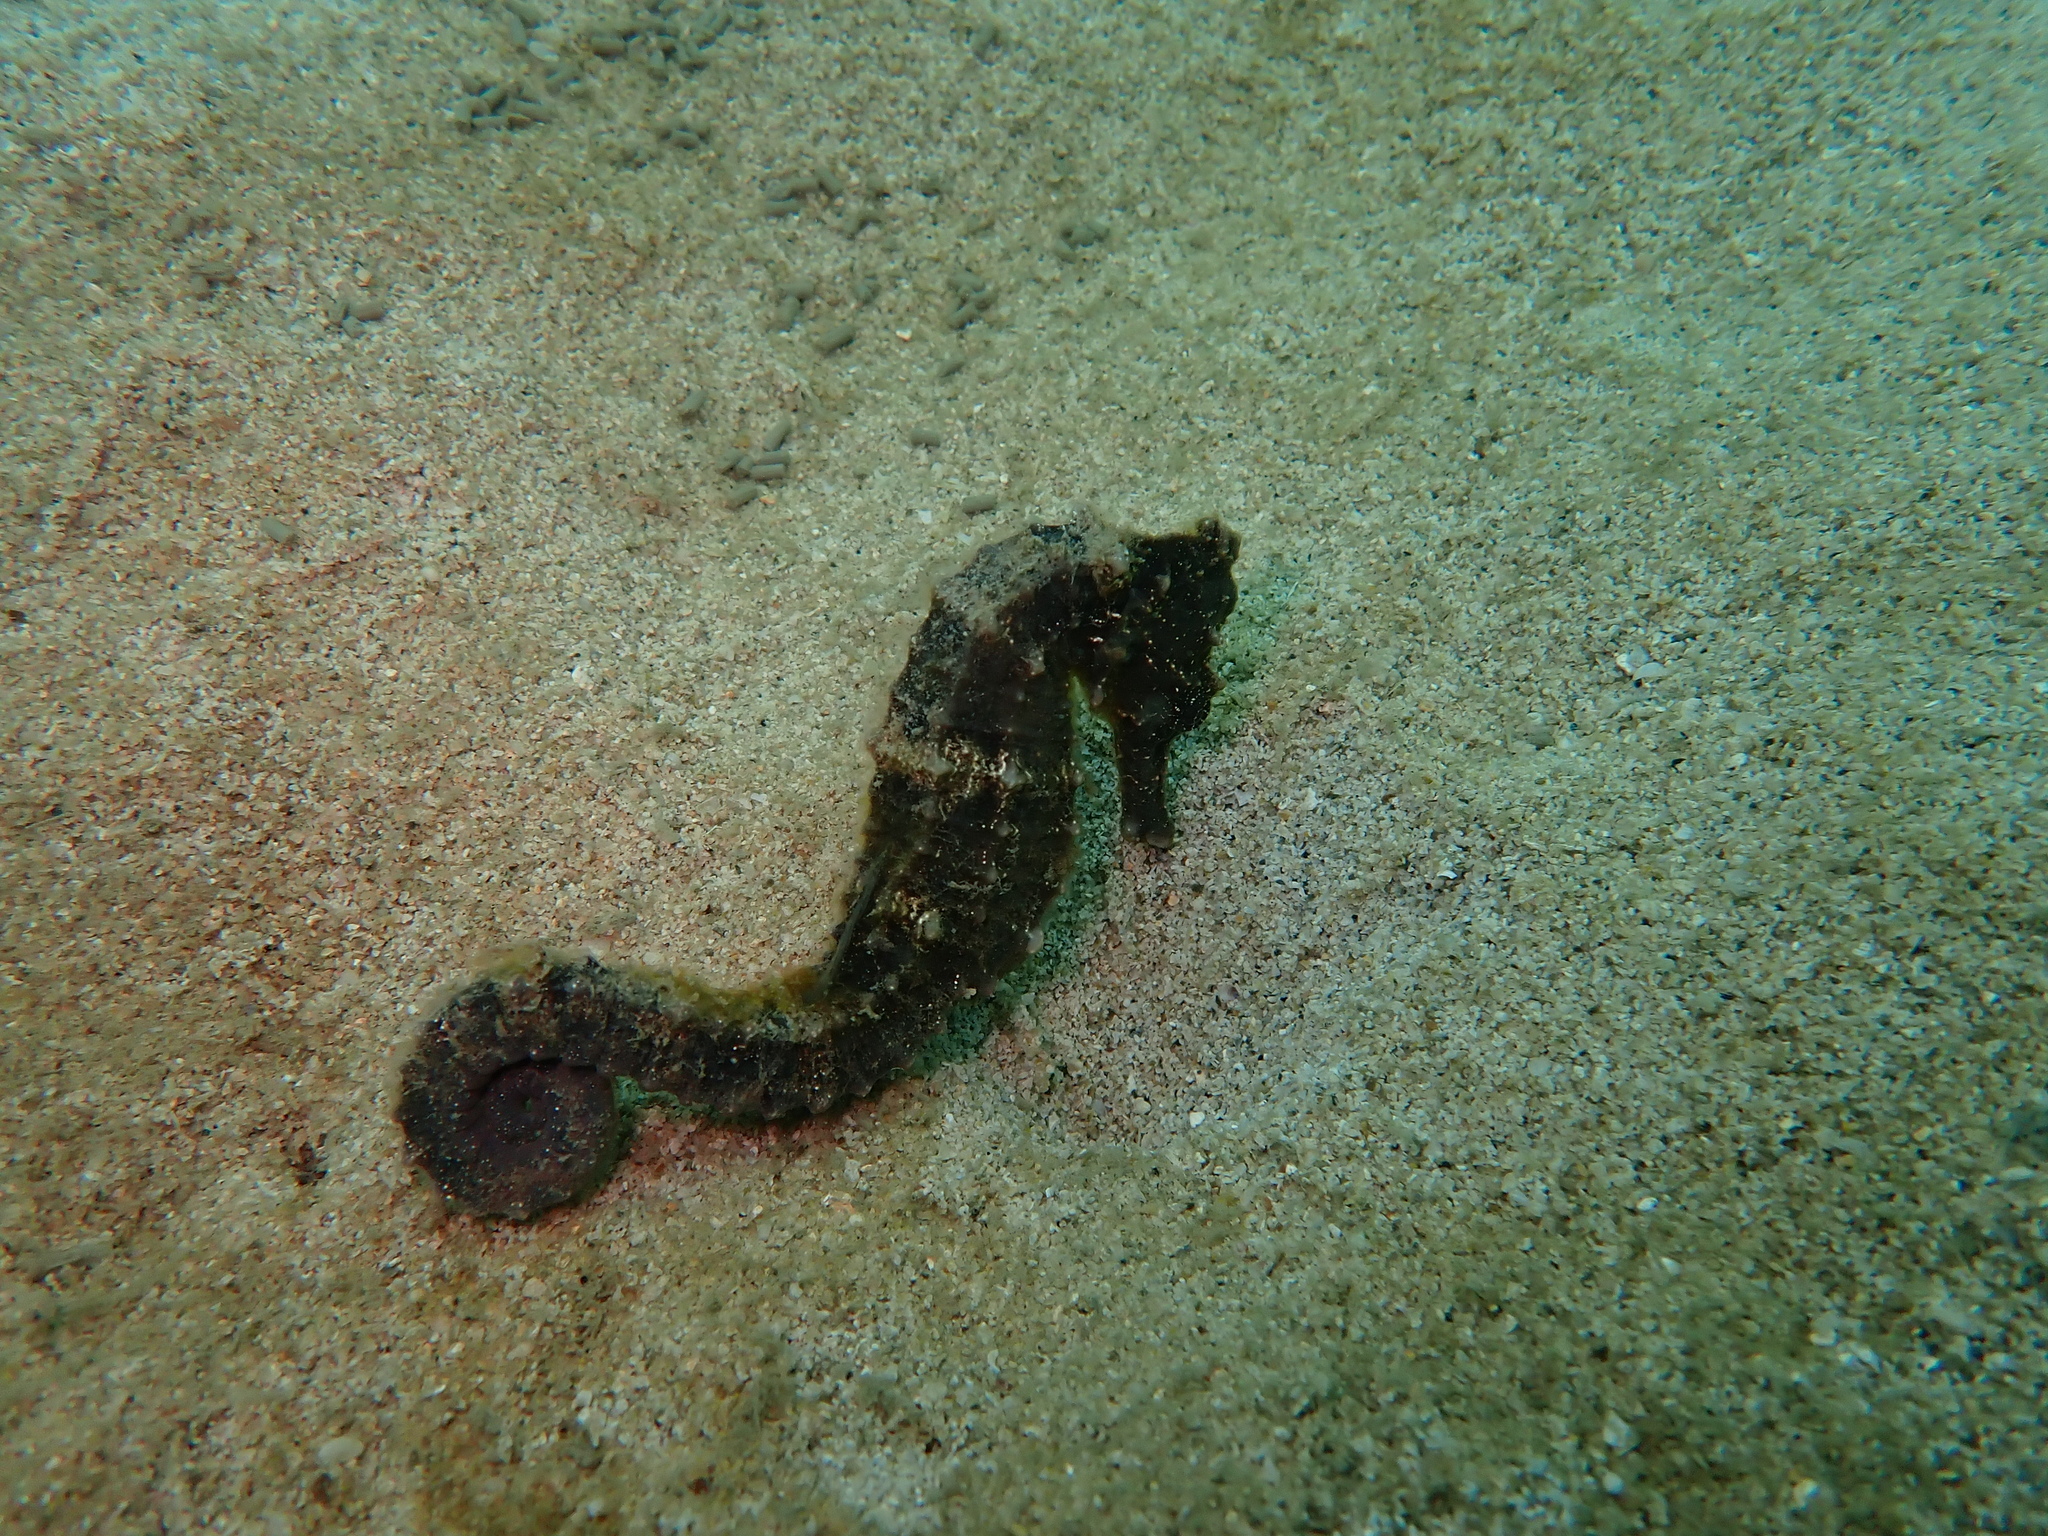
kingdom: Animalia
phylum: Chordata
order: Syngnathiformes
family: Syngnathidae
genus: Hippocampus
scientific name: Hippocampus kuda
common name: Spotted seahorse
